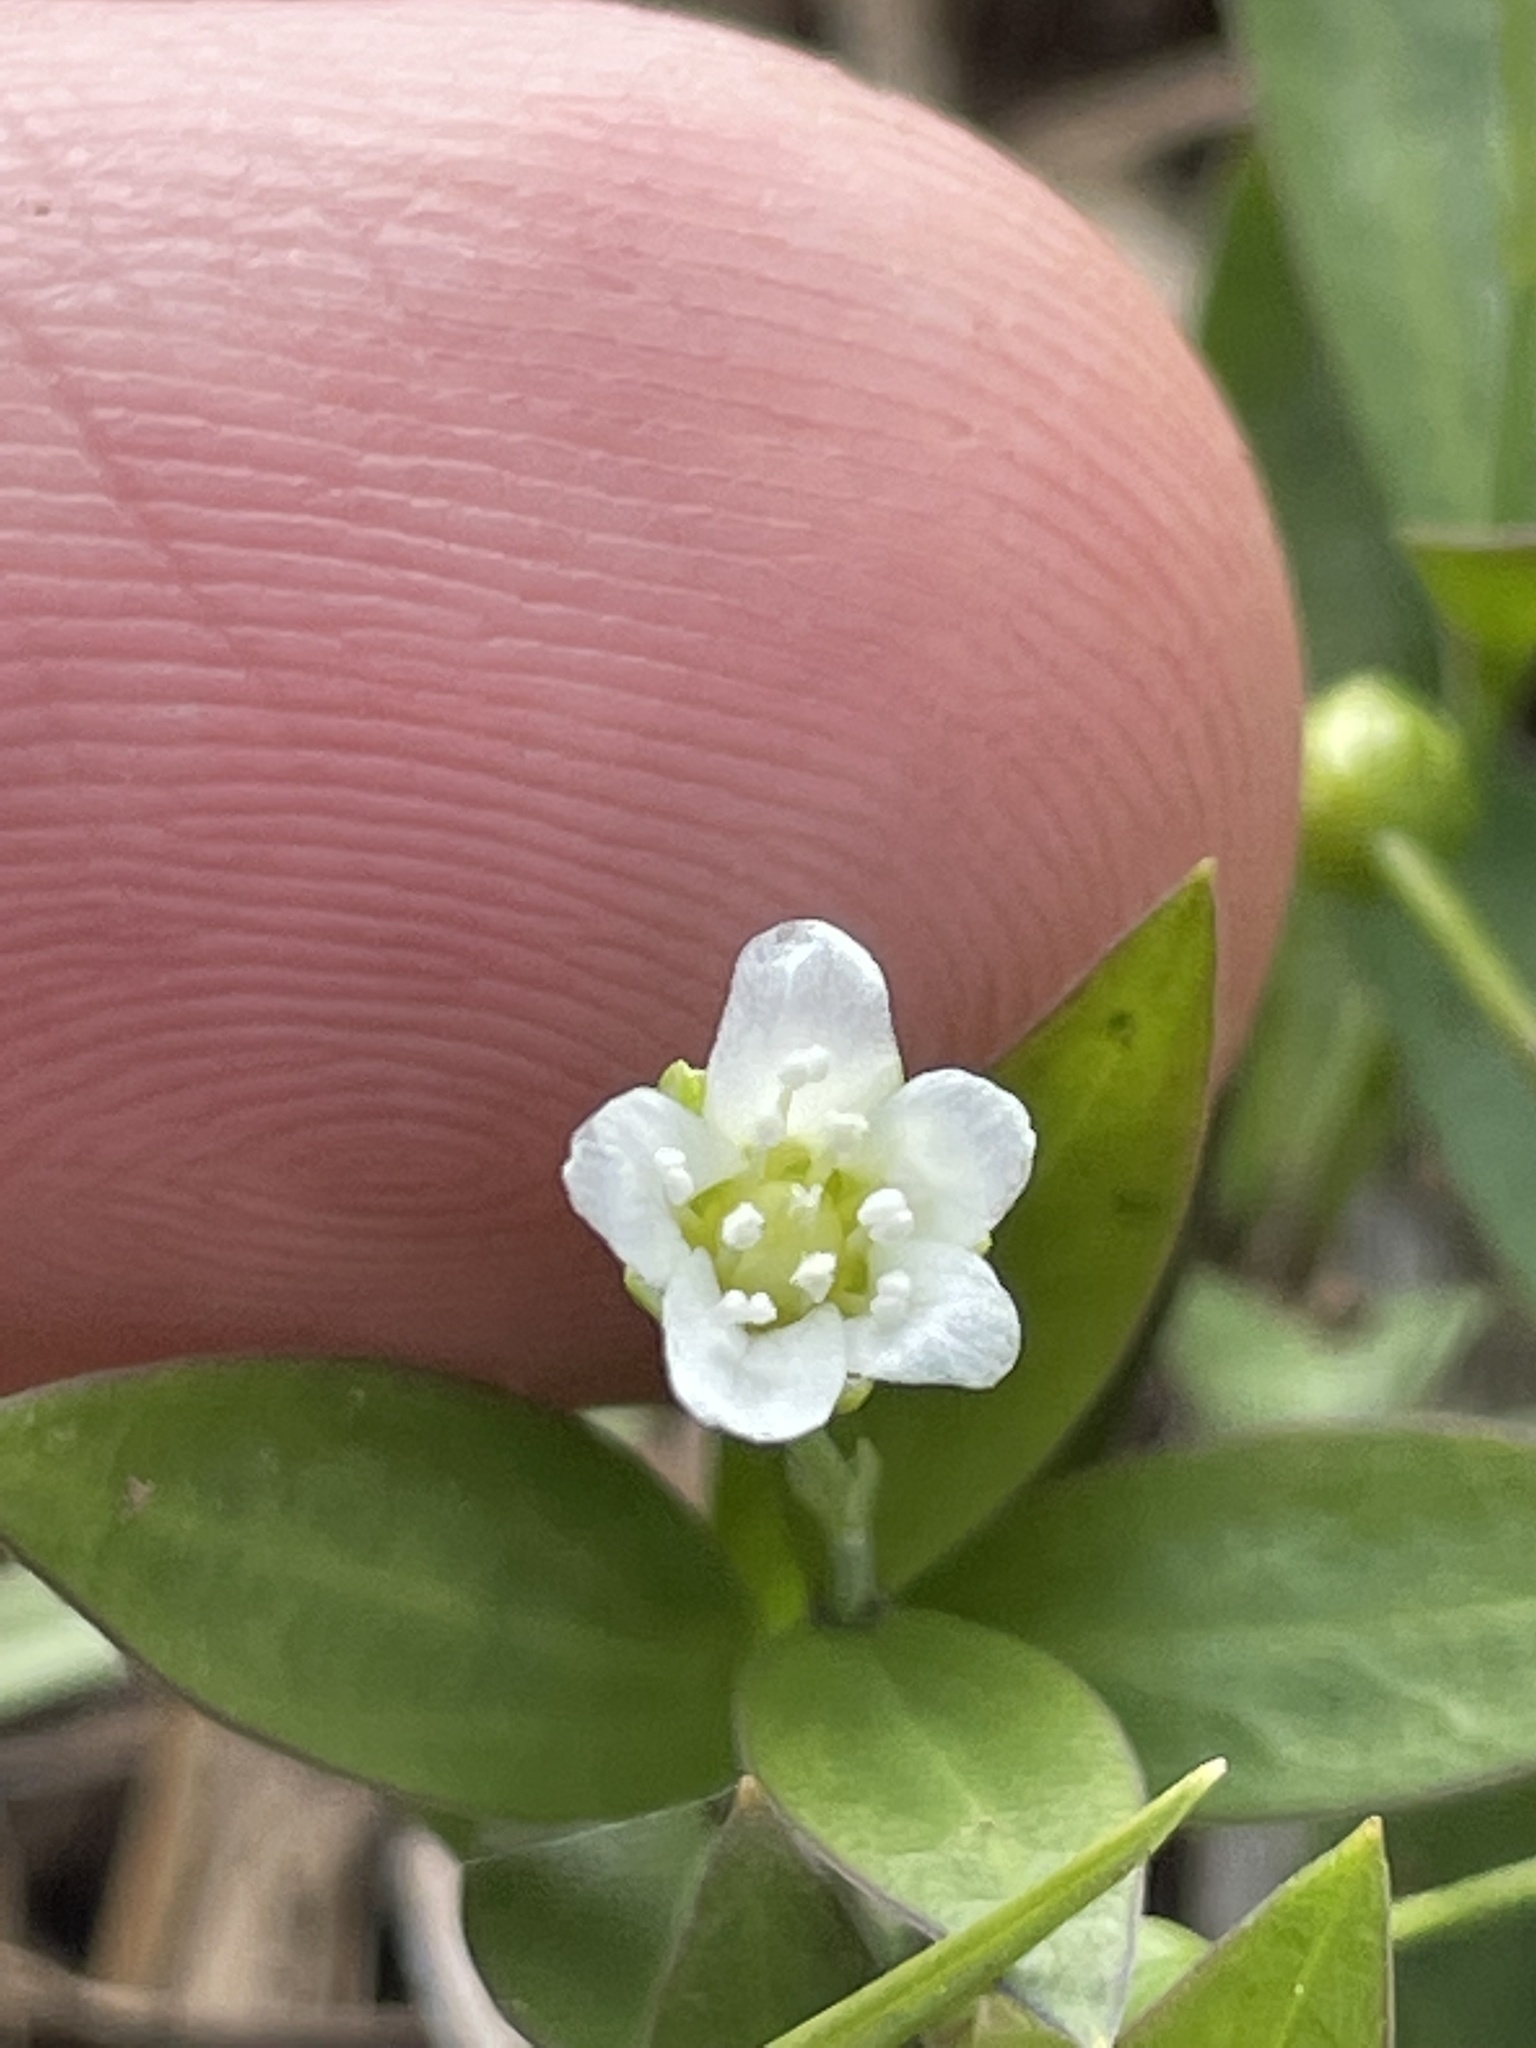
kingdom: Plantae
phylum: Tracheophyta
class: Magnoliopsida
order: Caryophyllales
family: Caryophyllaceae
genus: Moehringia
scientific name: Moehringia macrophylla
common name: Big-leaf sandwort
